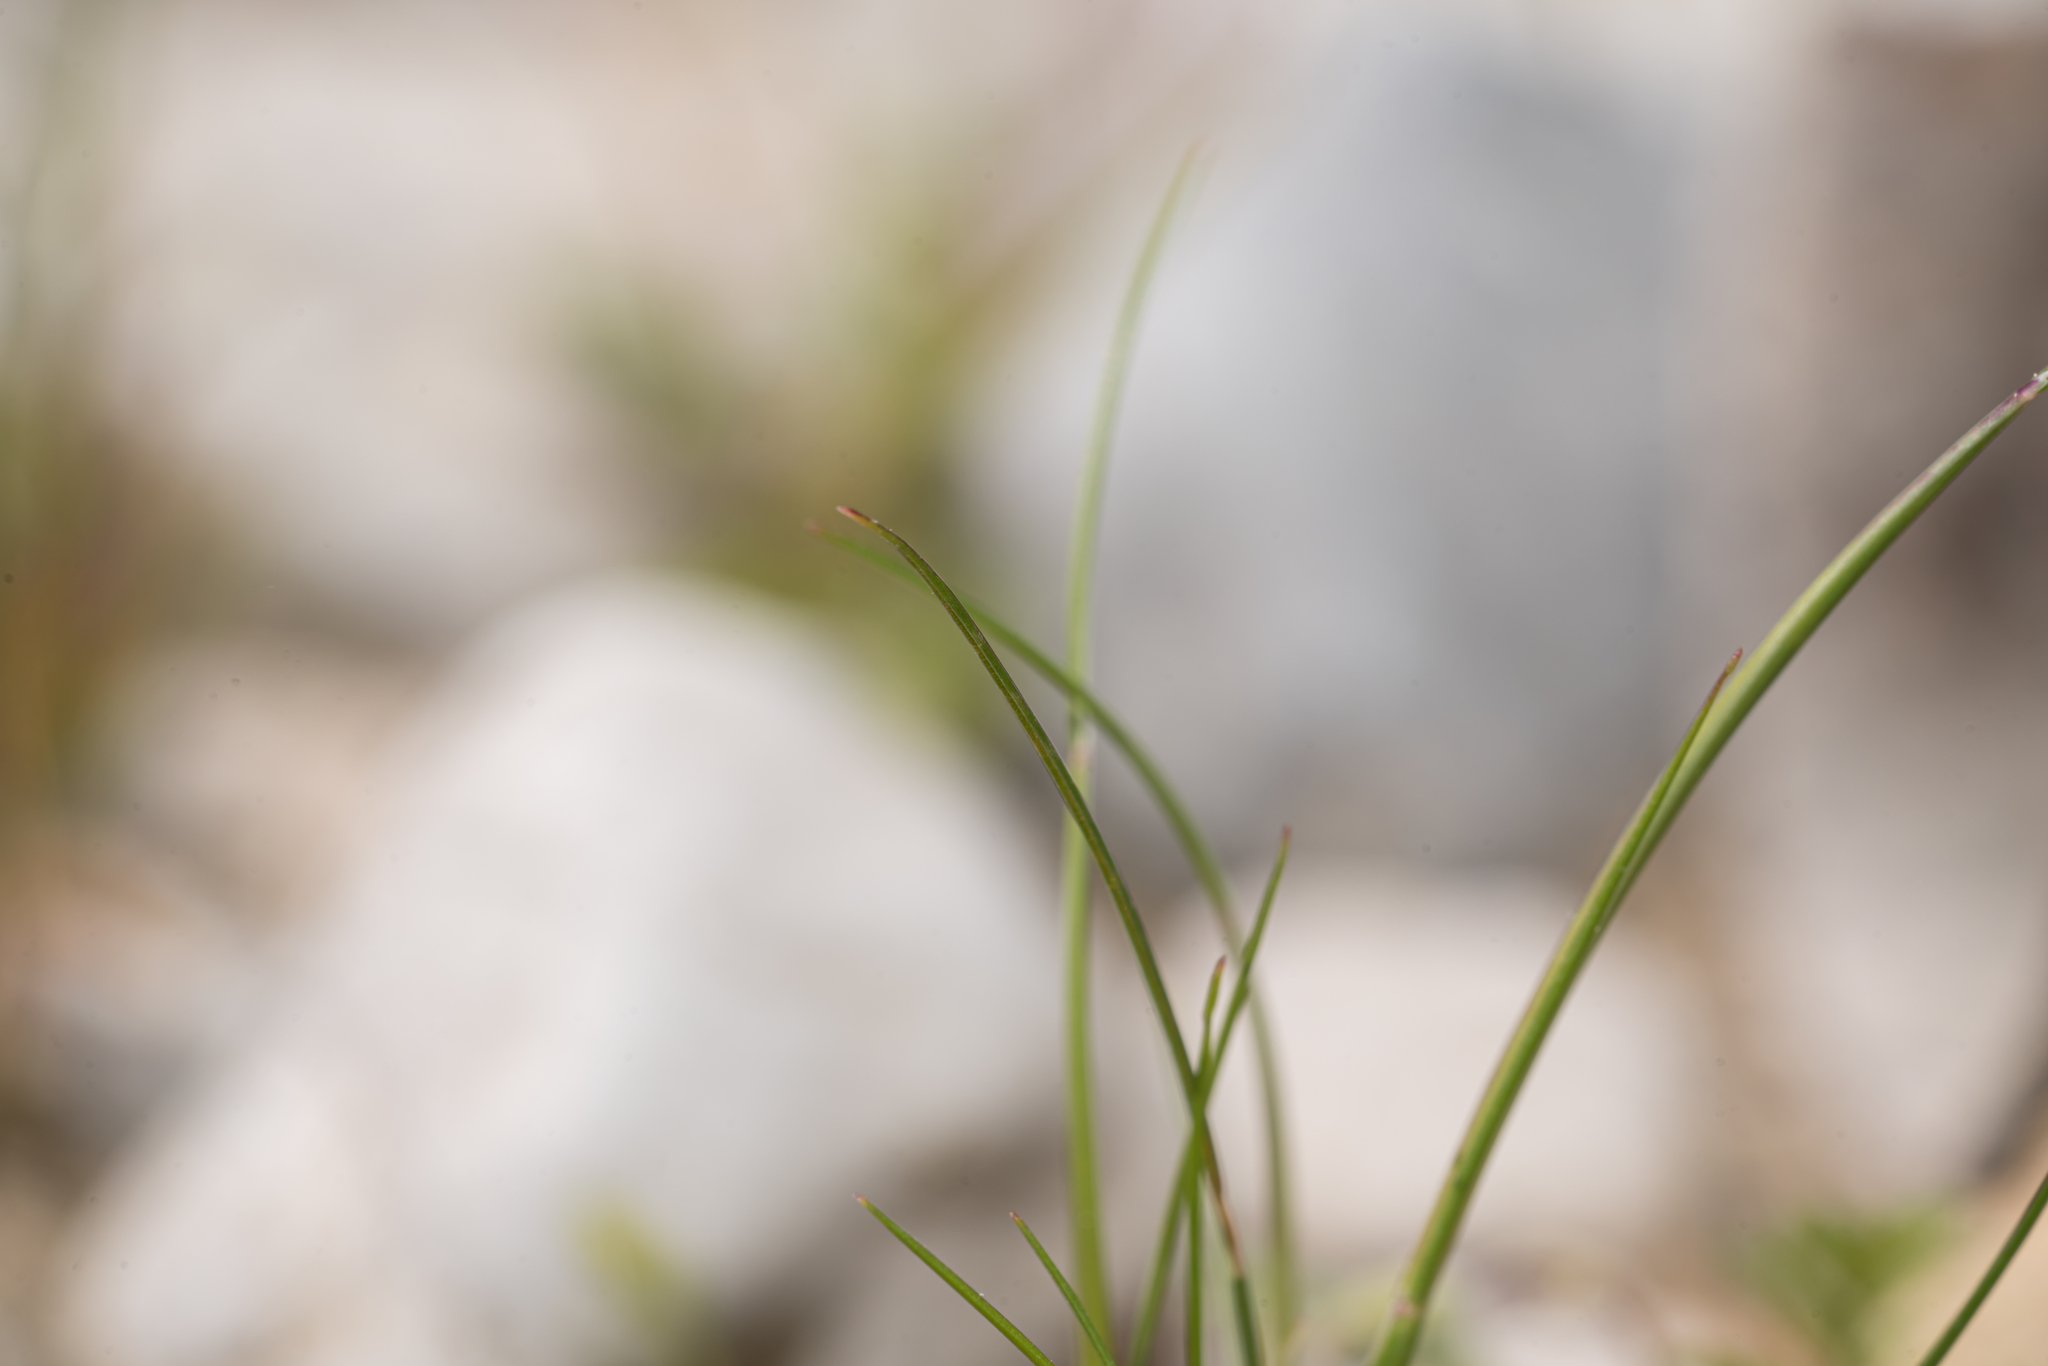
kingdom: Plantae
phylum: Tracheophyta
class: Liliopsida
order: Poales
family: Poaceae
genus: Festuca
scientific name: Festuca incurva
